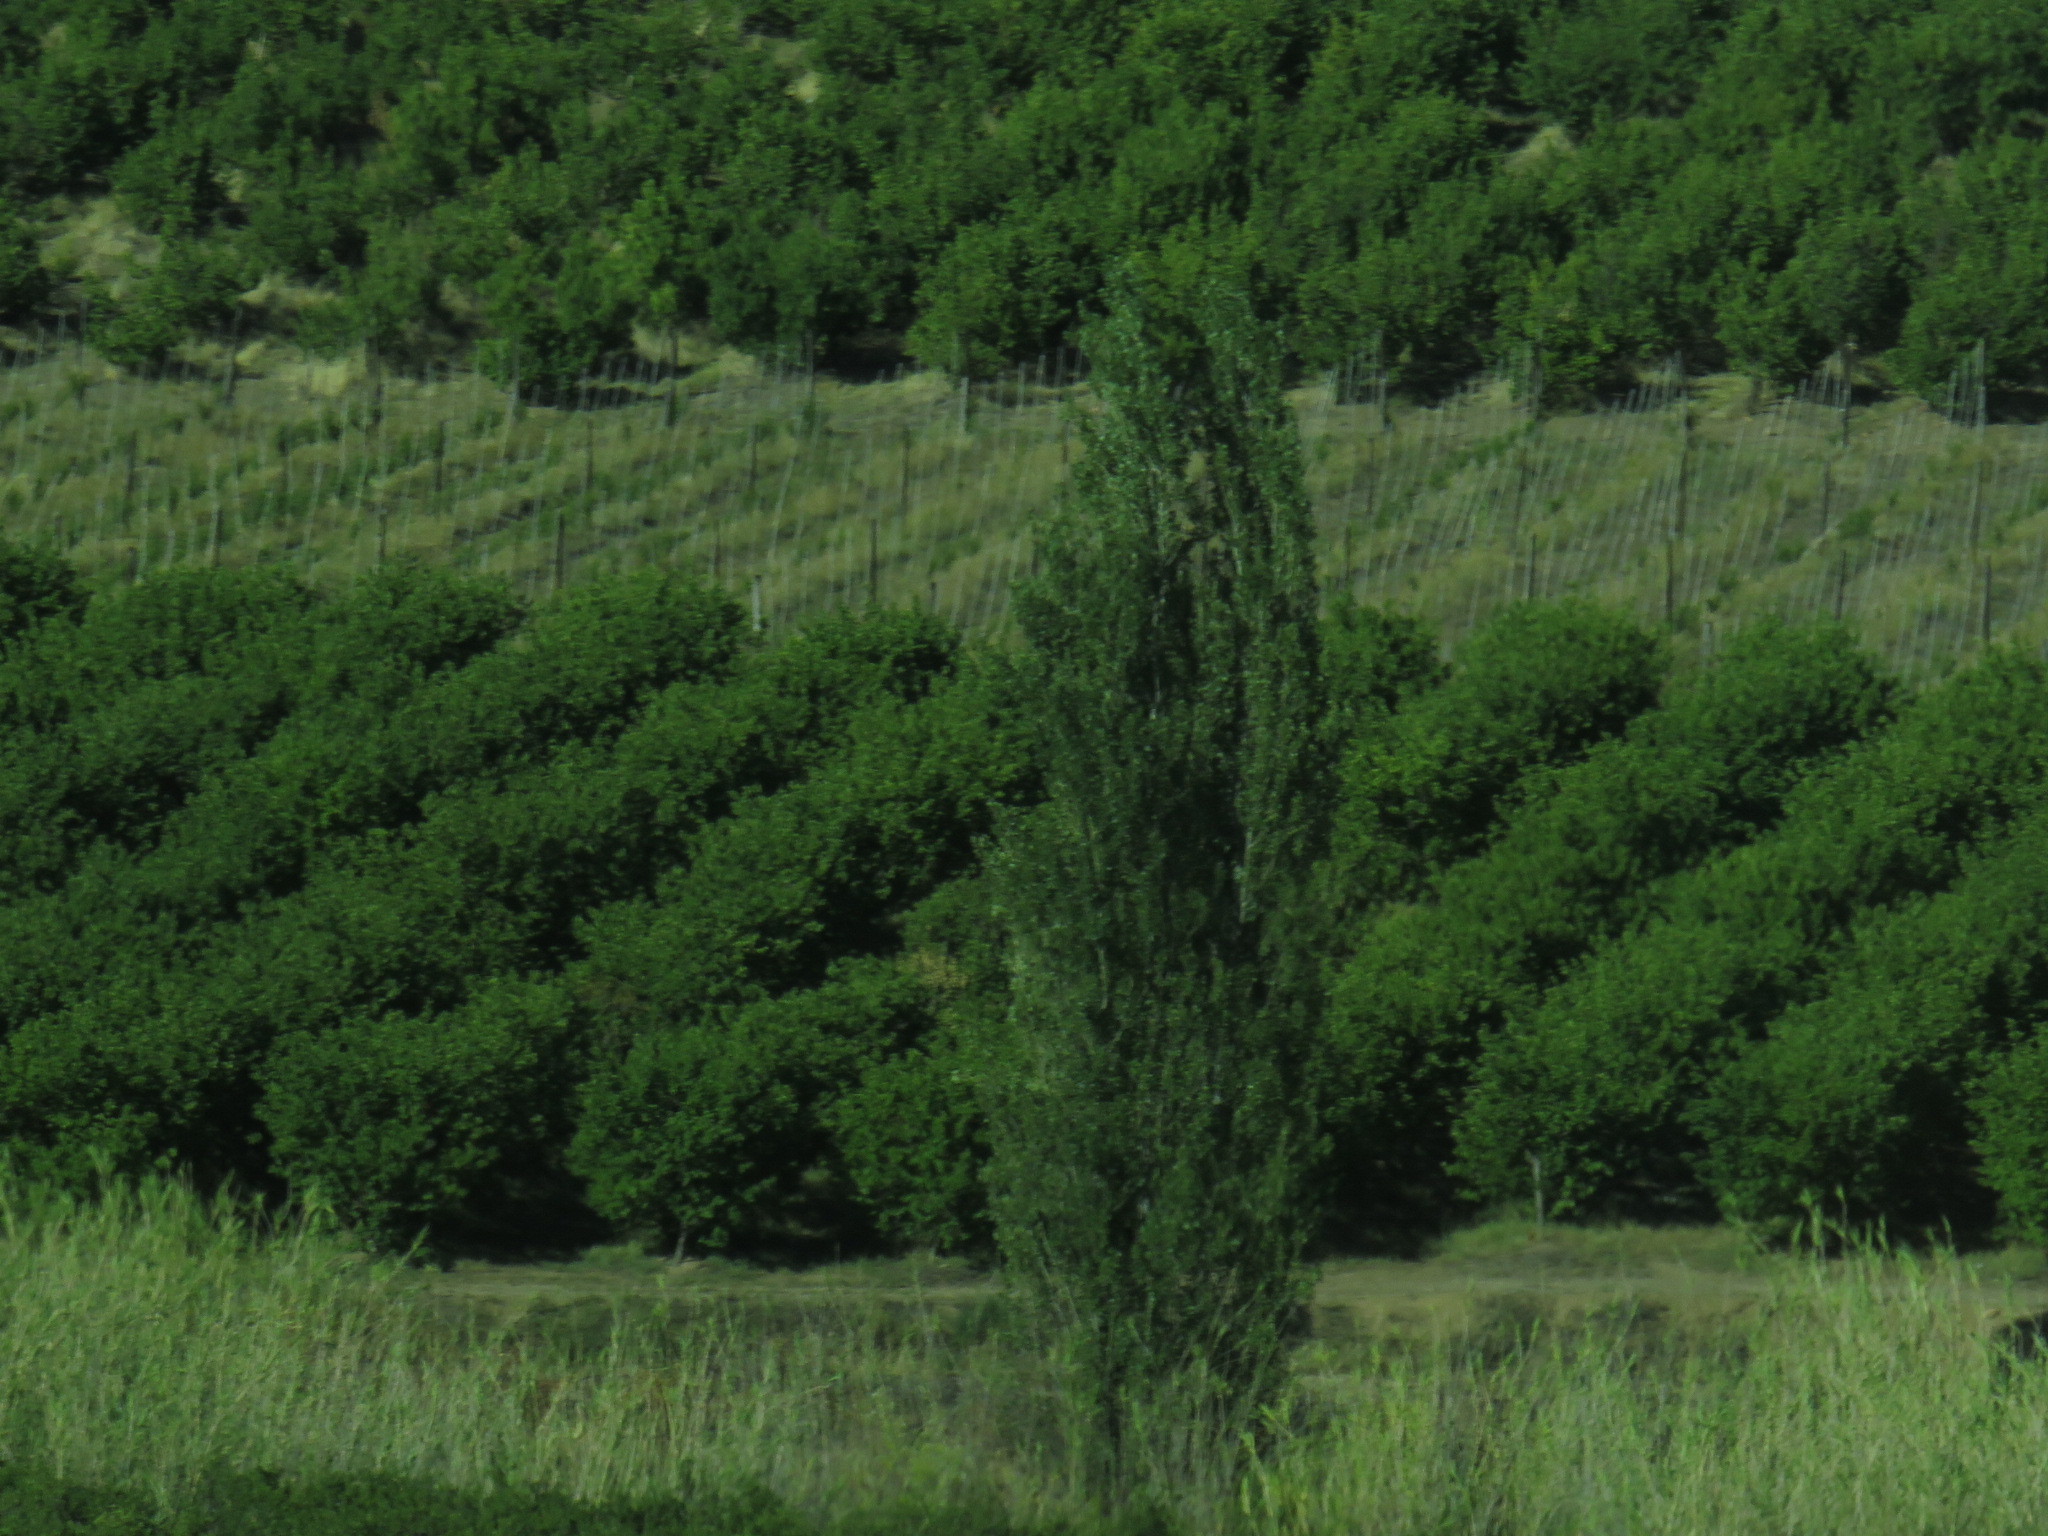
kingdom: Plantae
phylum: Tracheophyta
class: Liliopsida
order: Poales
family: Poaceae
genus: Arundo
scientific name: Arundo donax
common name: Giant reed
